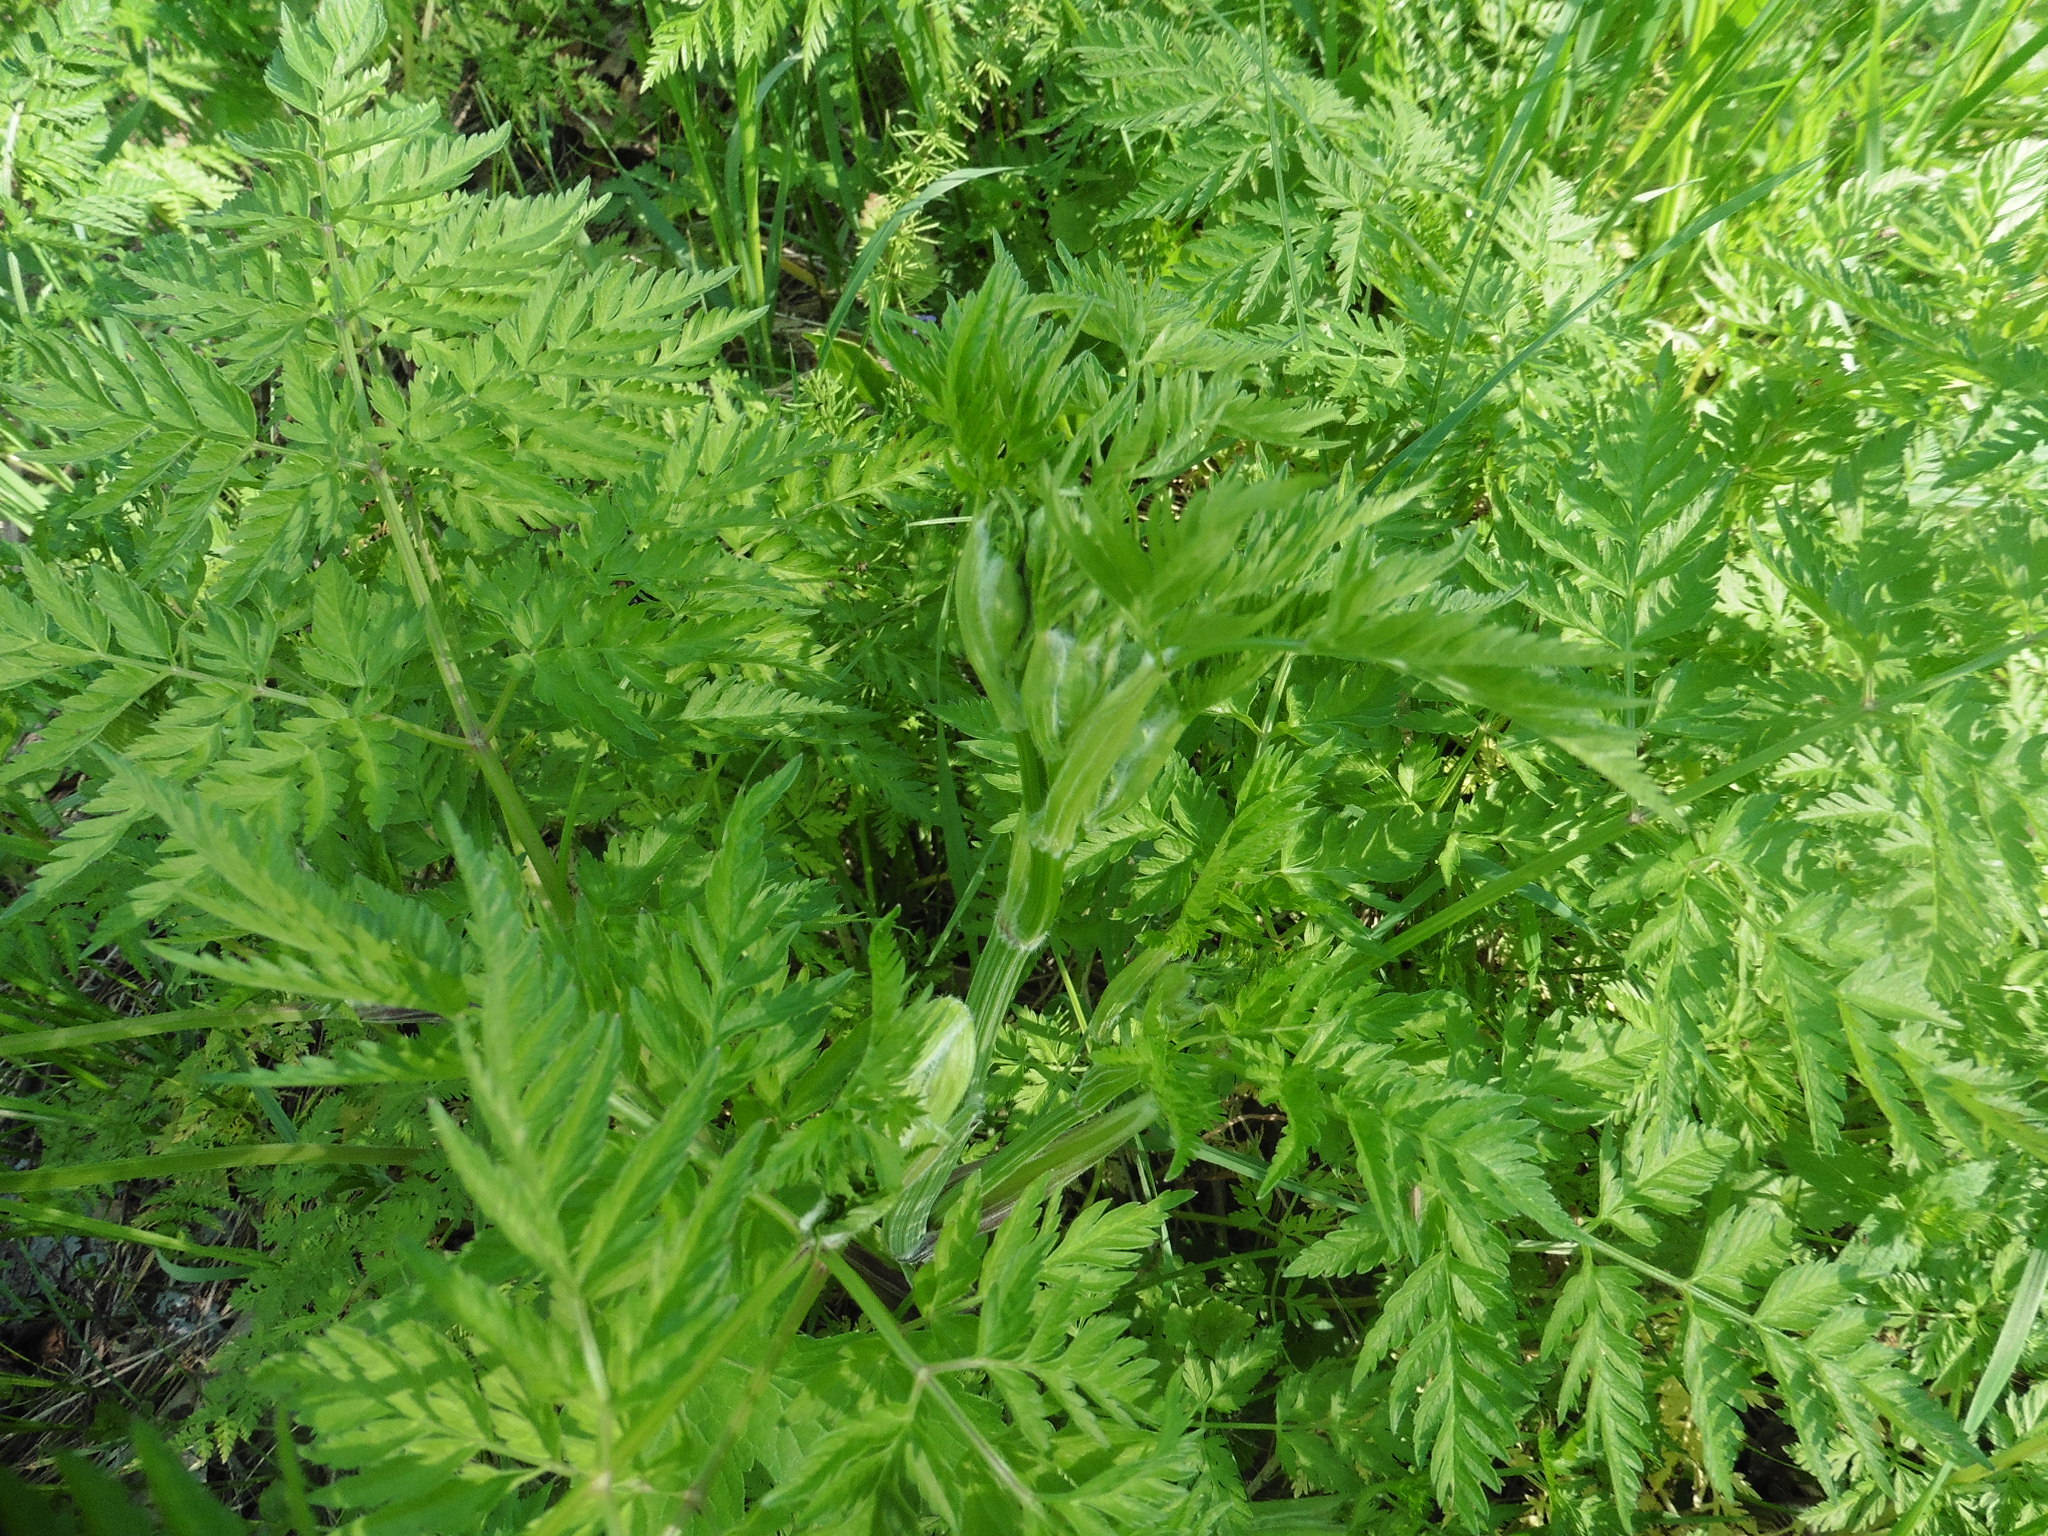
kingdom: Plantae
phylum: Tracheophyta
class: Magnoliopsida
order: Apiales
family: Apiaceae
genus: Anthriscus
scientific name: Anthriscus sylvestris
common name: Cow parsley
